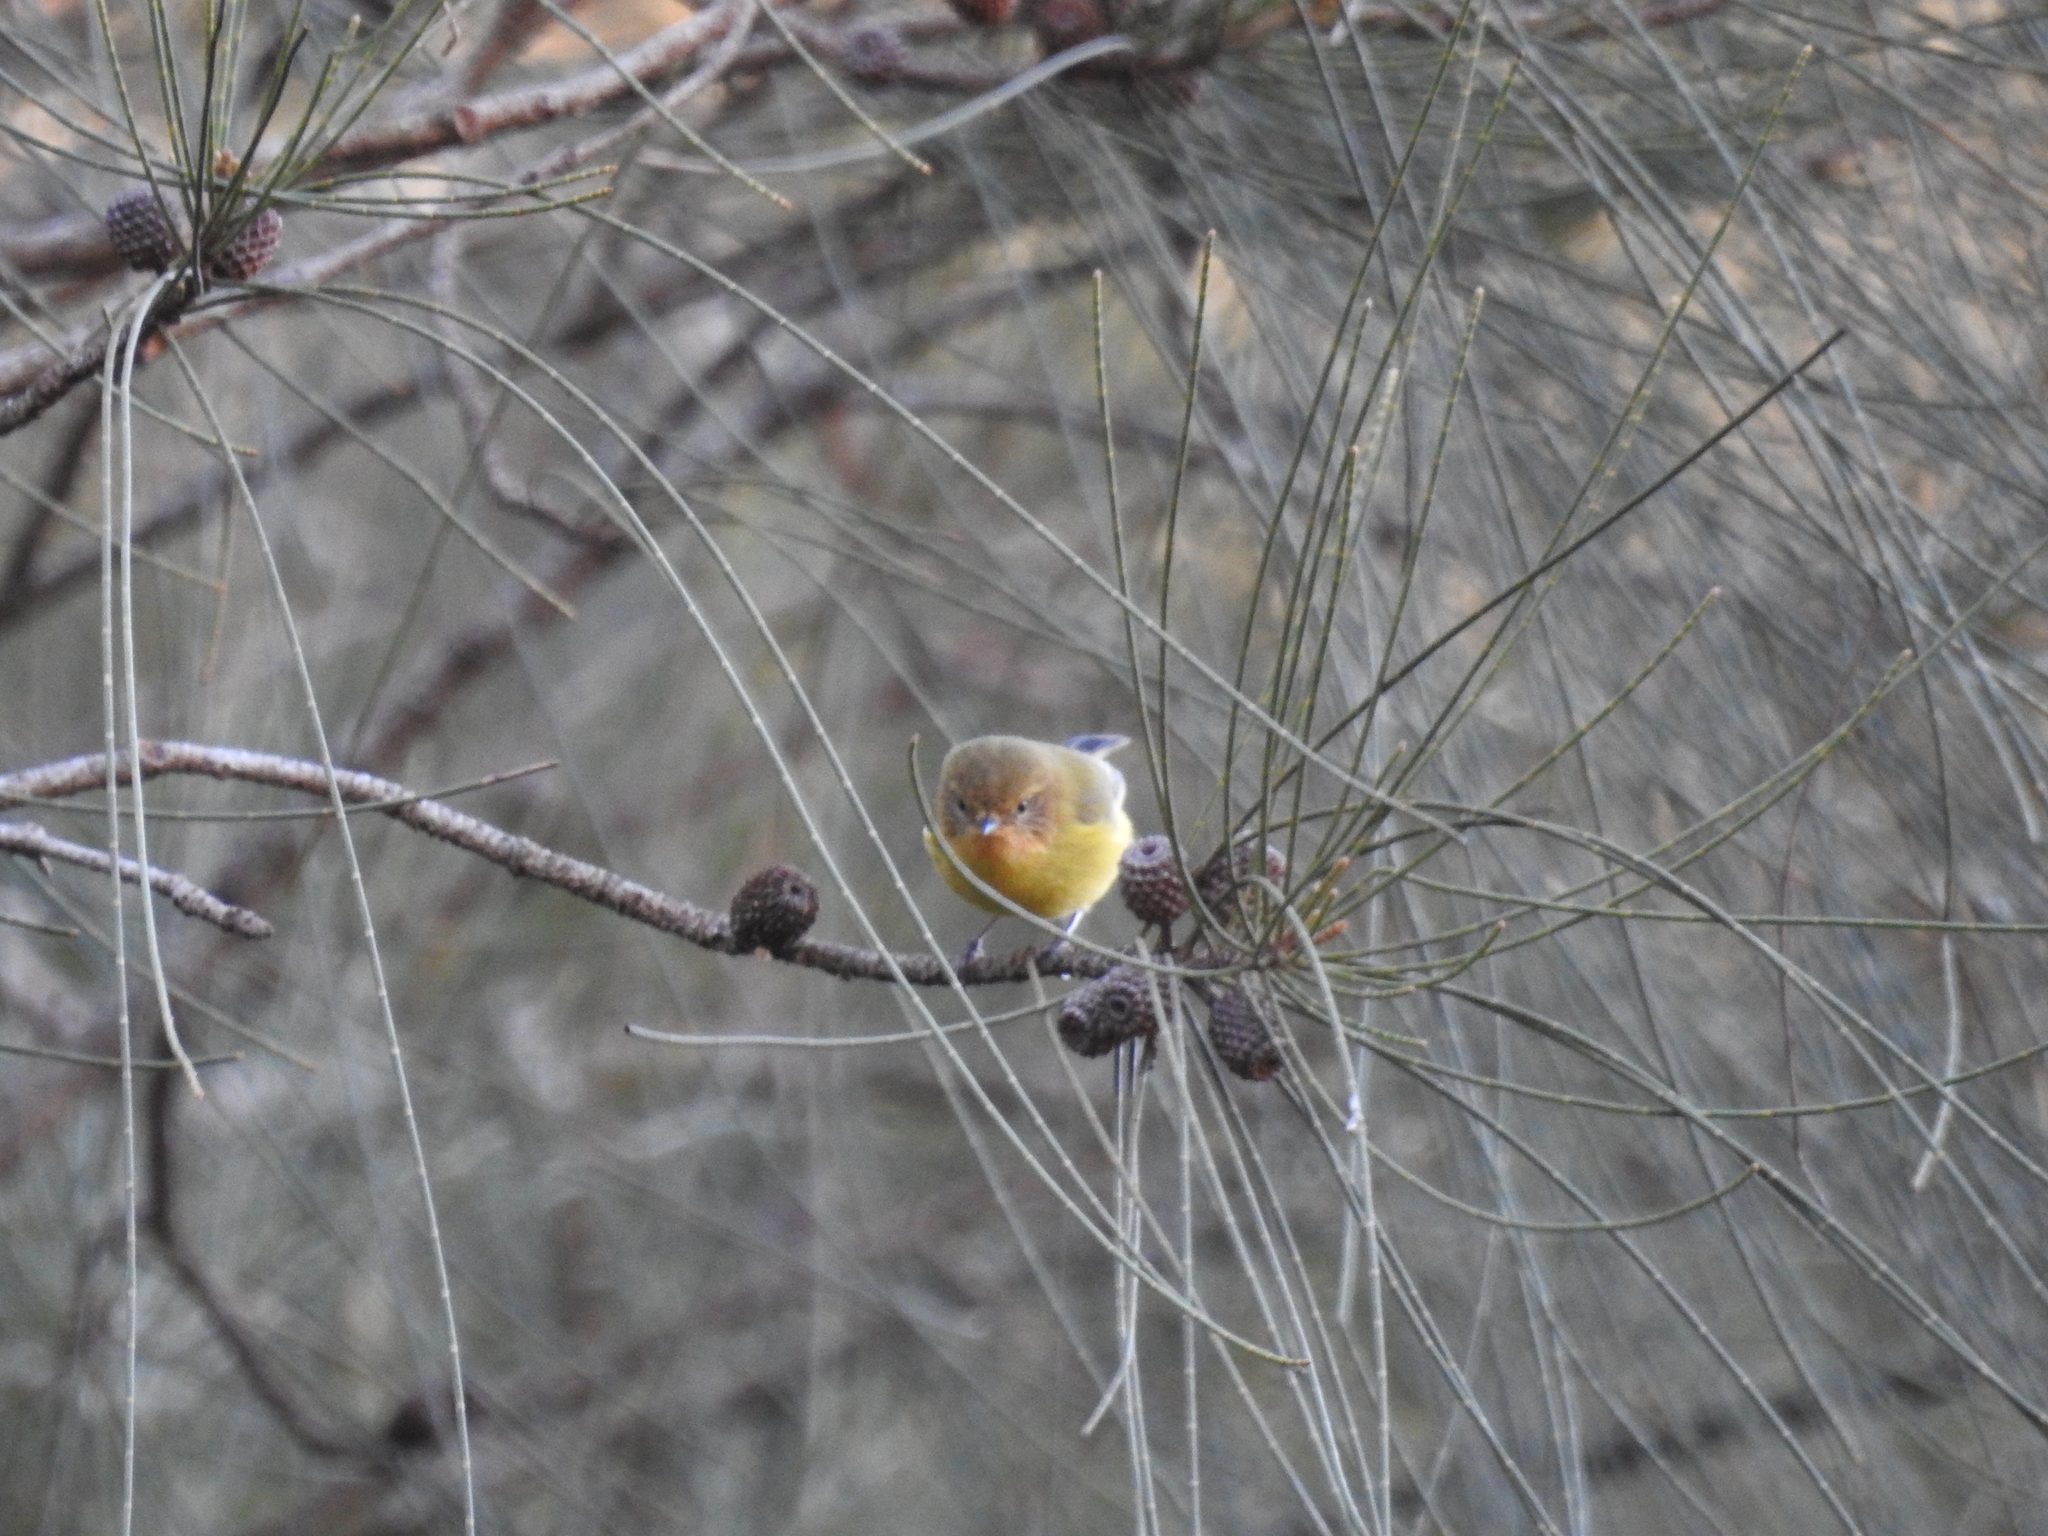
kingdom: Animalia
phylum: Chordata
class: Aves
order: Passeriformes
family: Acanthizidae
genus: Acanthiza
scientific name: Acanthiza nana
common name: Yellow thornbill
